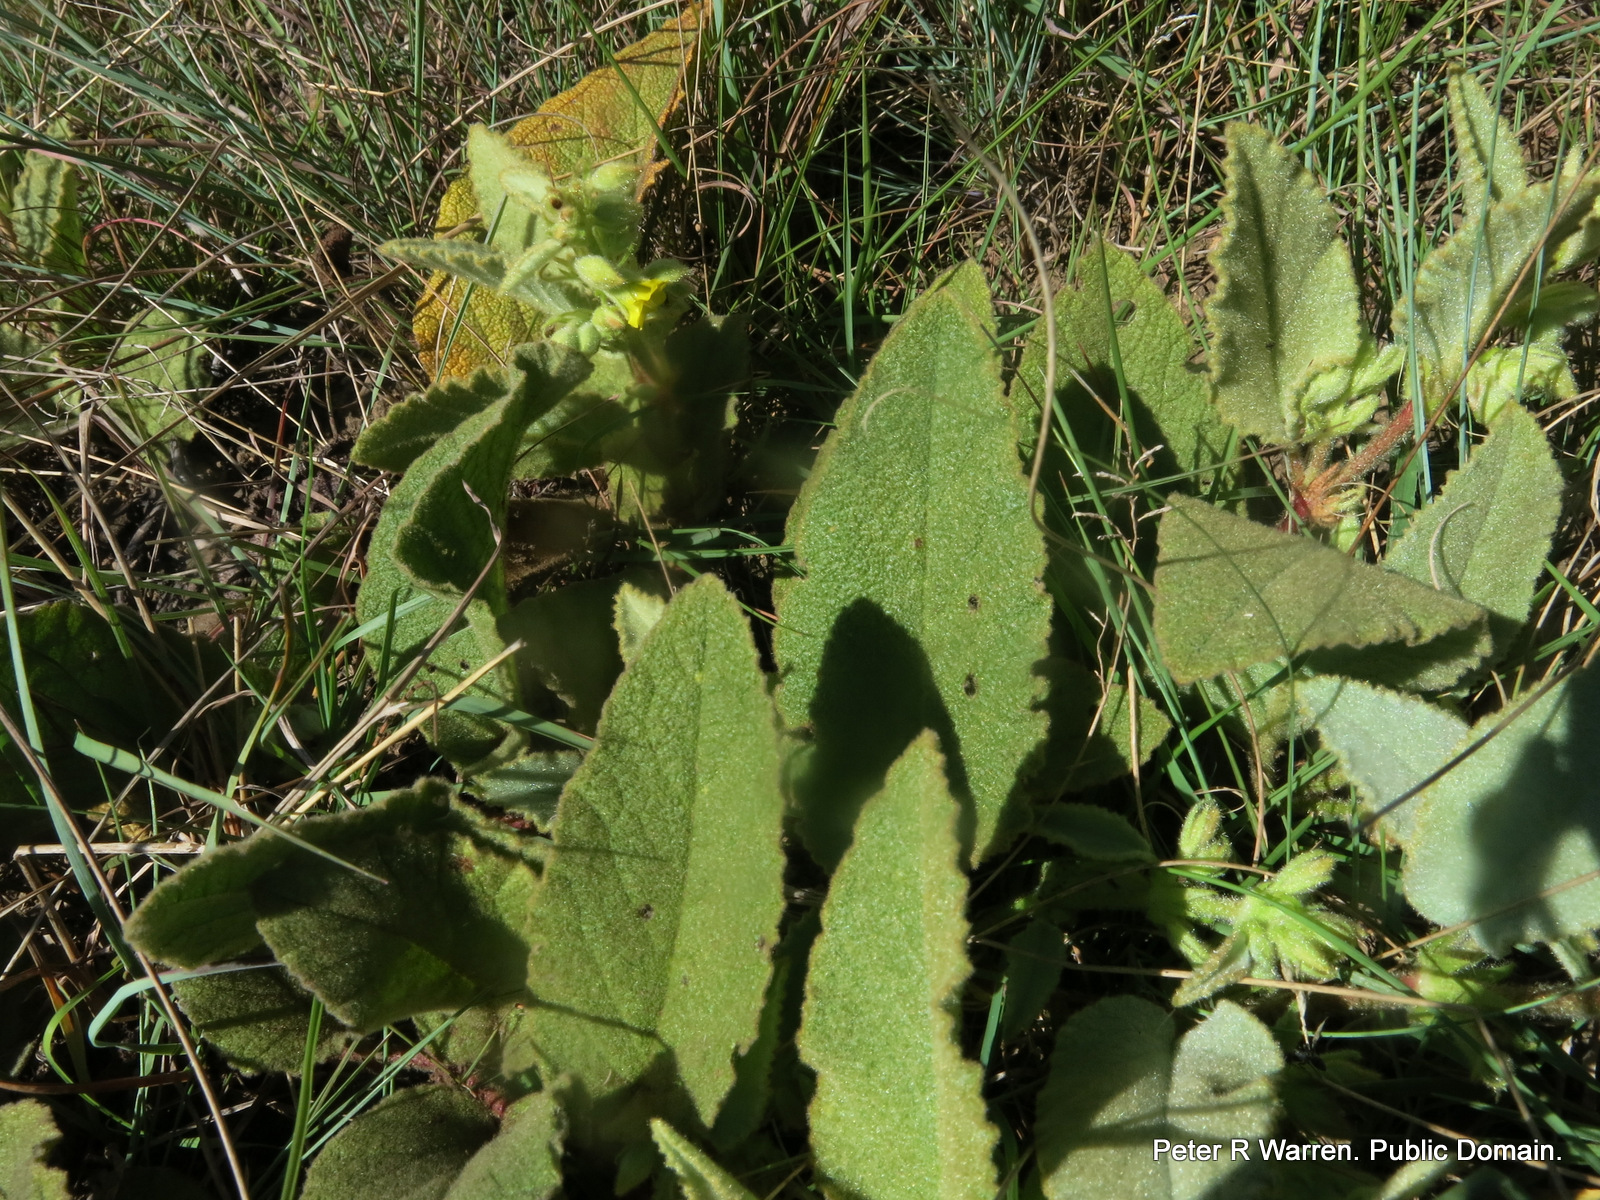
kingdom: Plantae
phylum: Tracheophyta
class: Magnoliopsida
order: Malvales
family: Malvaceae
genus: Hermannia
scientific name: Hermannia gerardii
